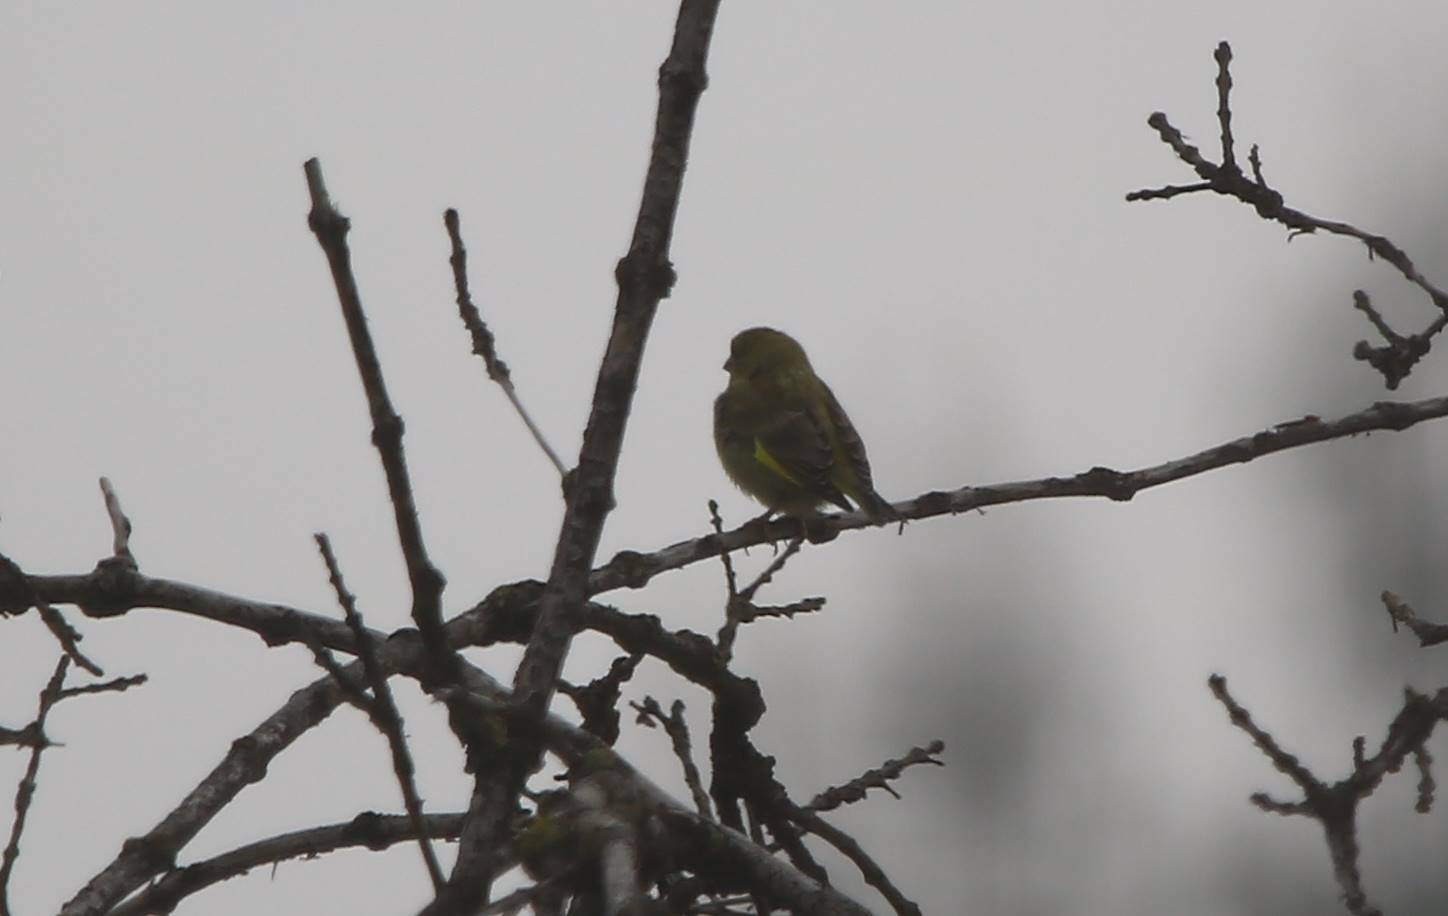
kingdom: Plantae
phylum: Tracheophyta
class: Liliopsida
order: Poales
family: Poaceae
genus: Chloris
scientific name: Chloris chloris
